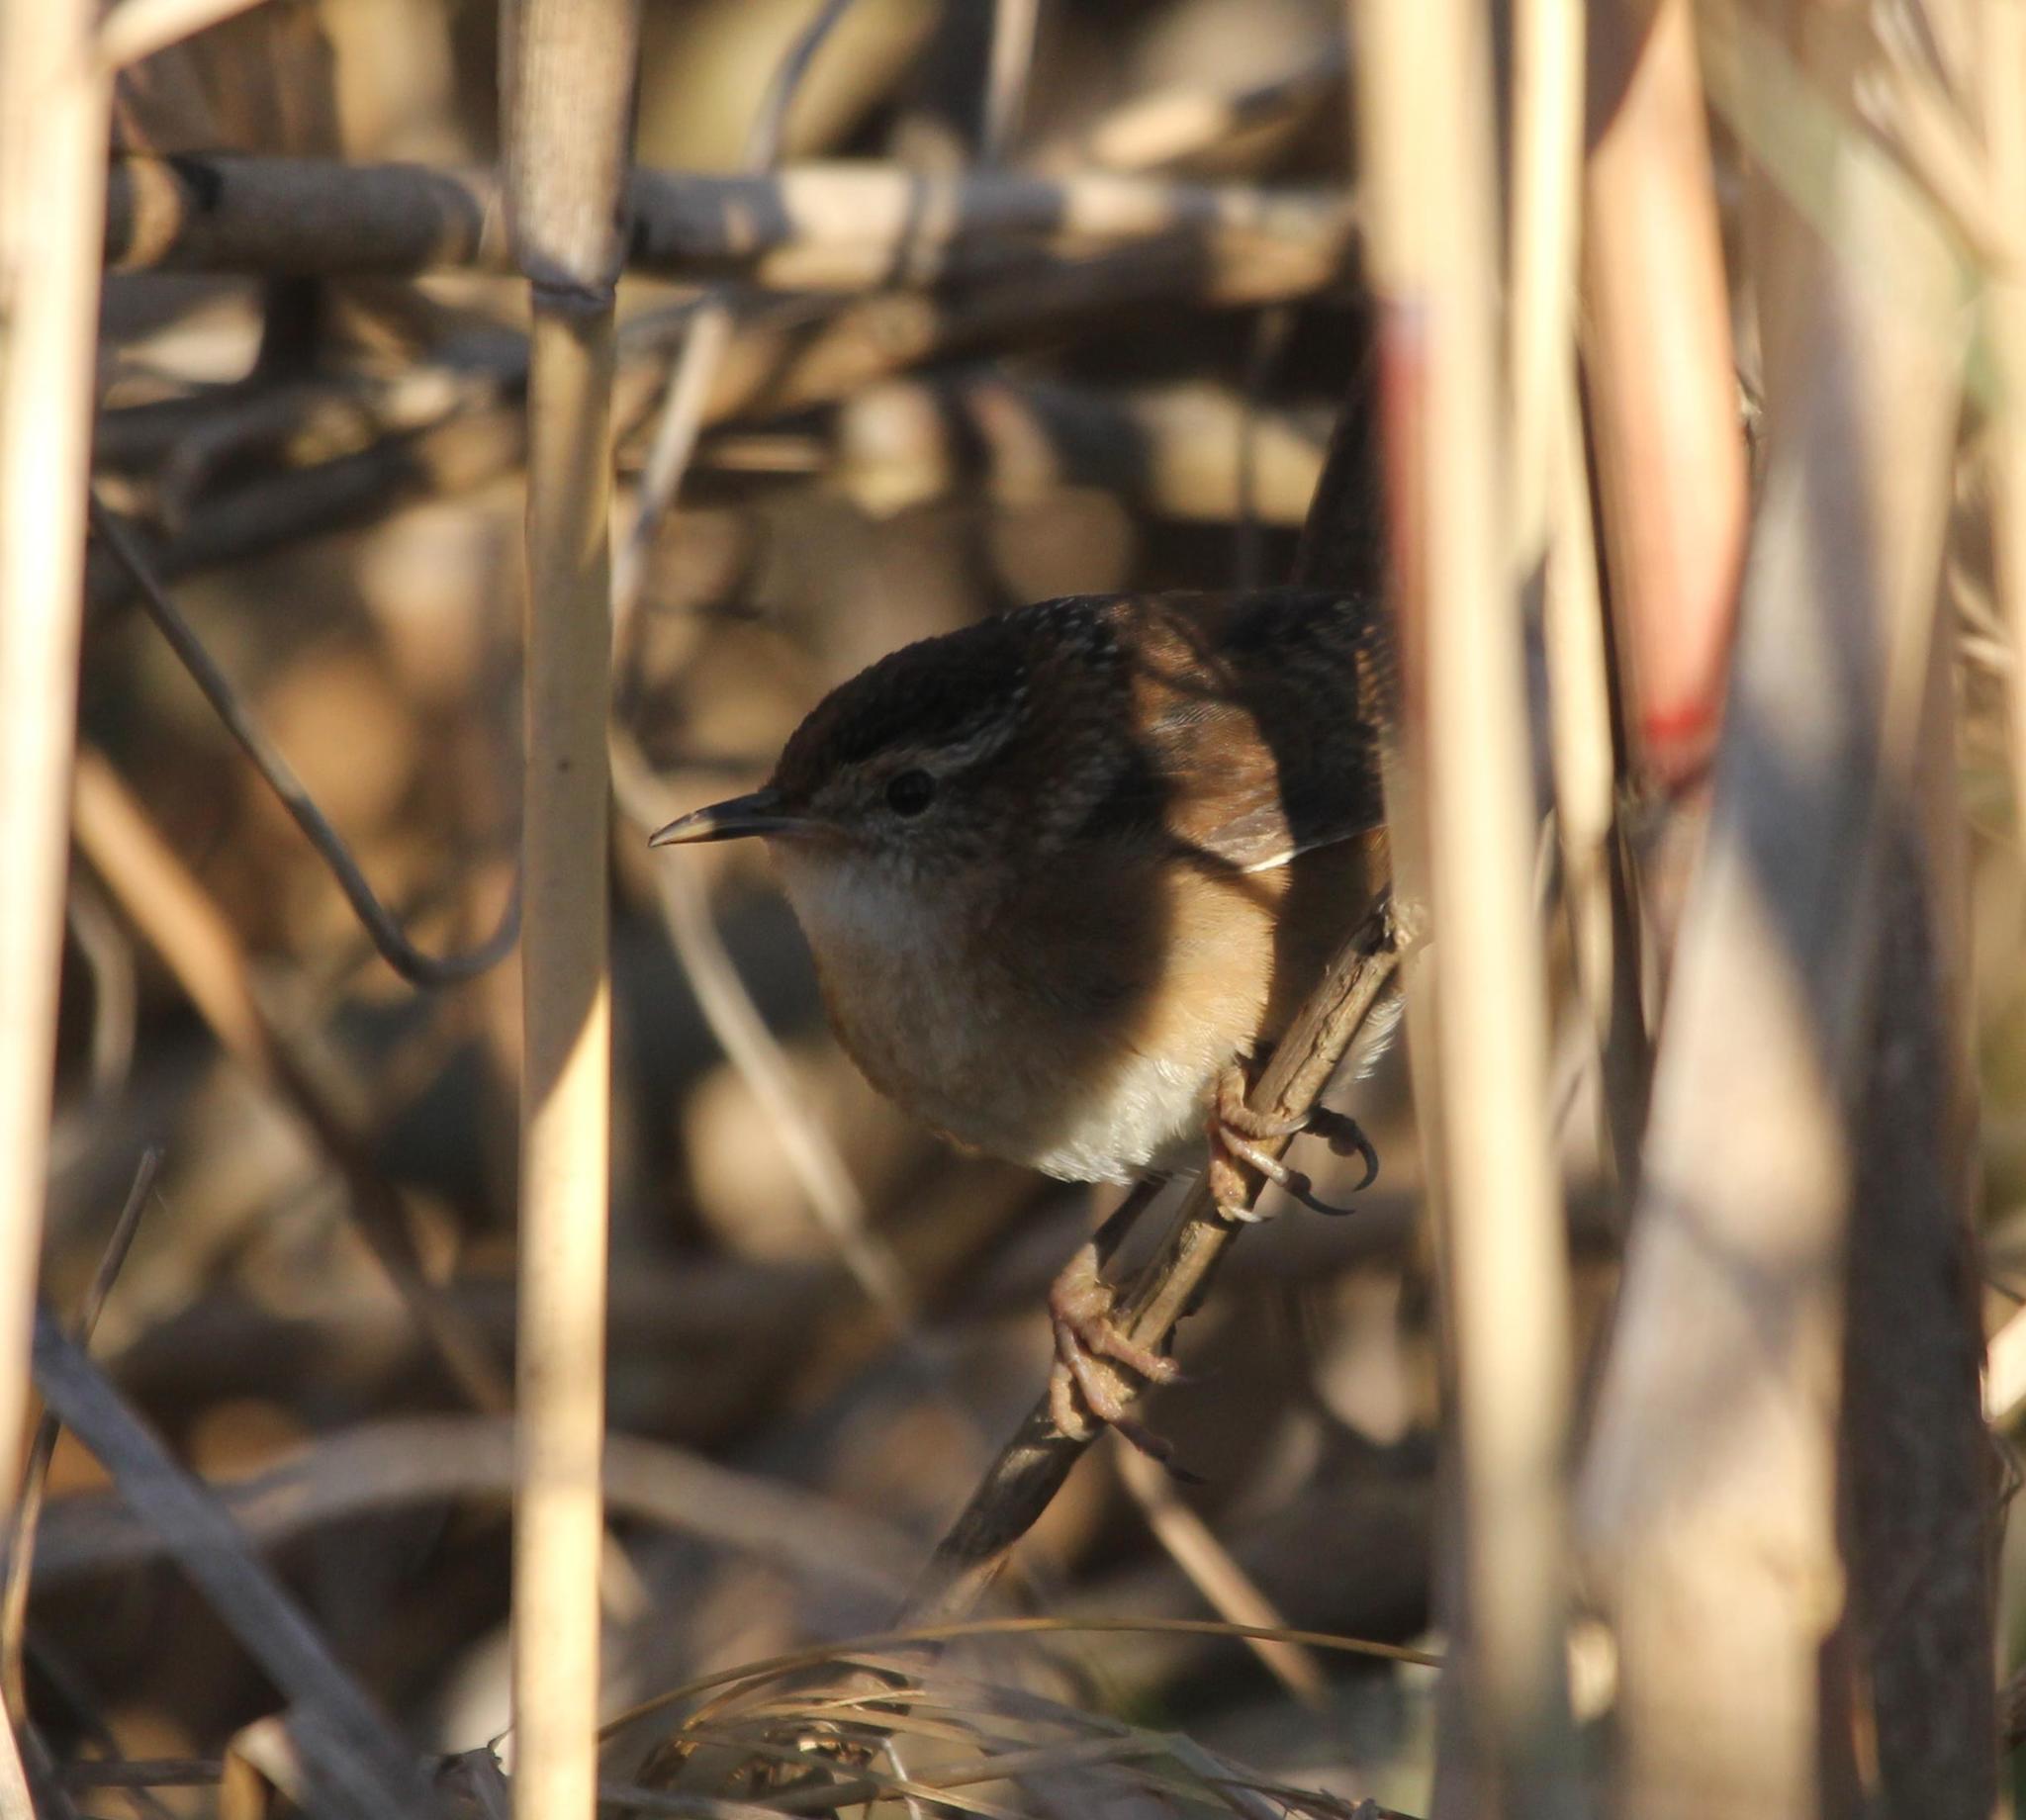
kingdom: Animalia
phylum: Chordata
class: Aves
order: Passeriformes
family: Troglodytidae
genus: Cistothorus
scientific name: Cistothorus palustris
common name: Marsh wren
